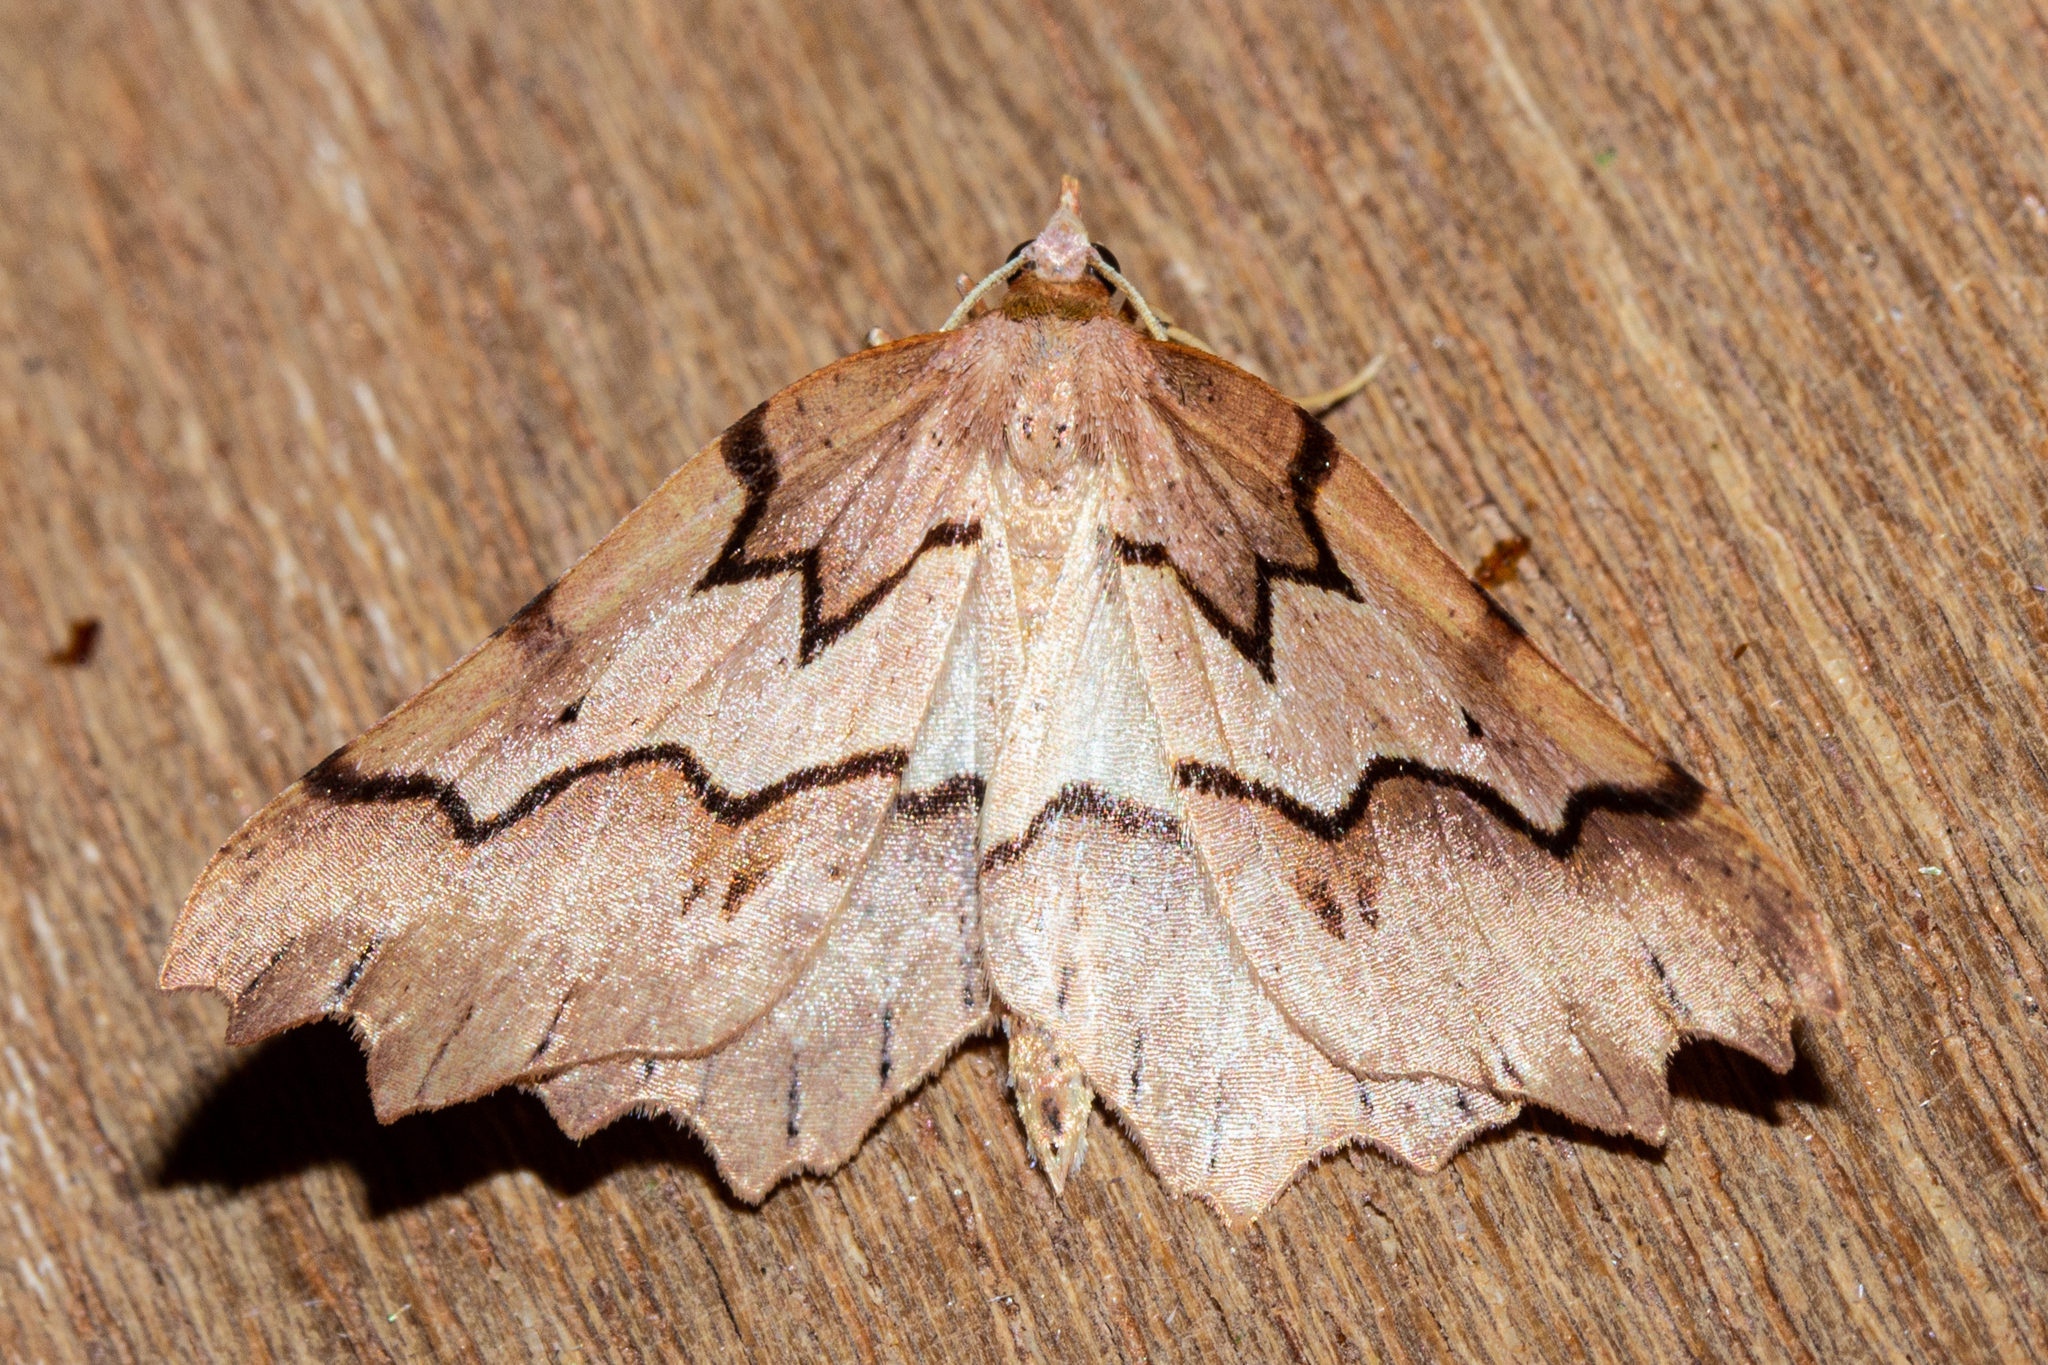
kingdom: Animalia
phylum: Arthropoda
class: Insecta
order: Lepidoptera
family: Geometridae
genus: Ischalis
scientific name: Ischalis fortinata
